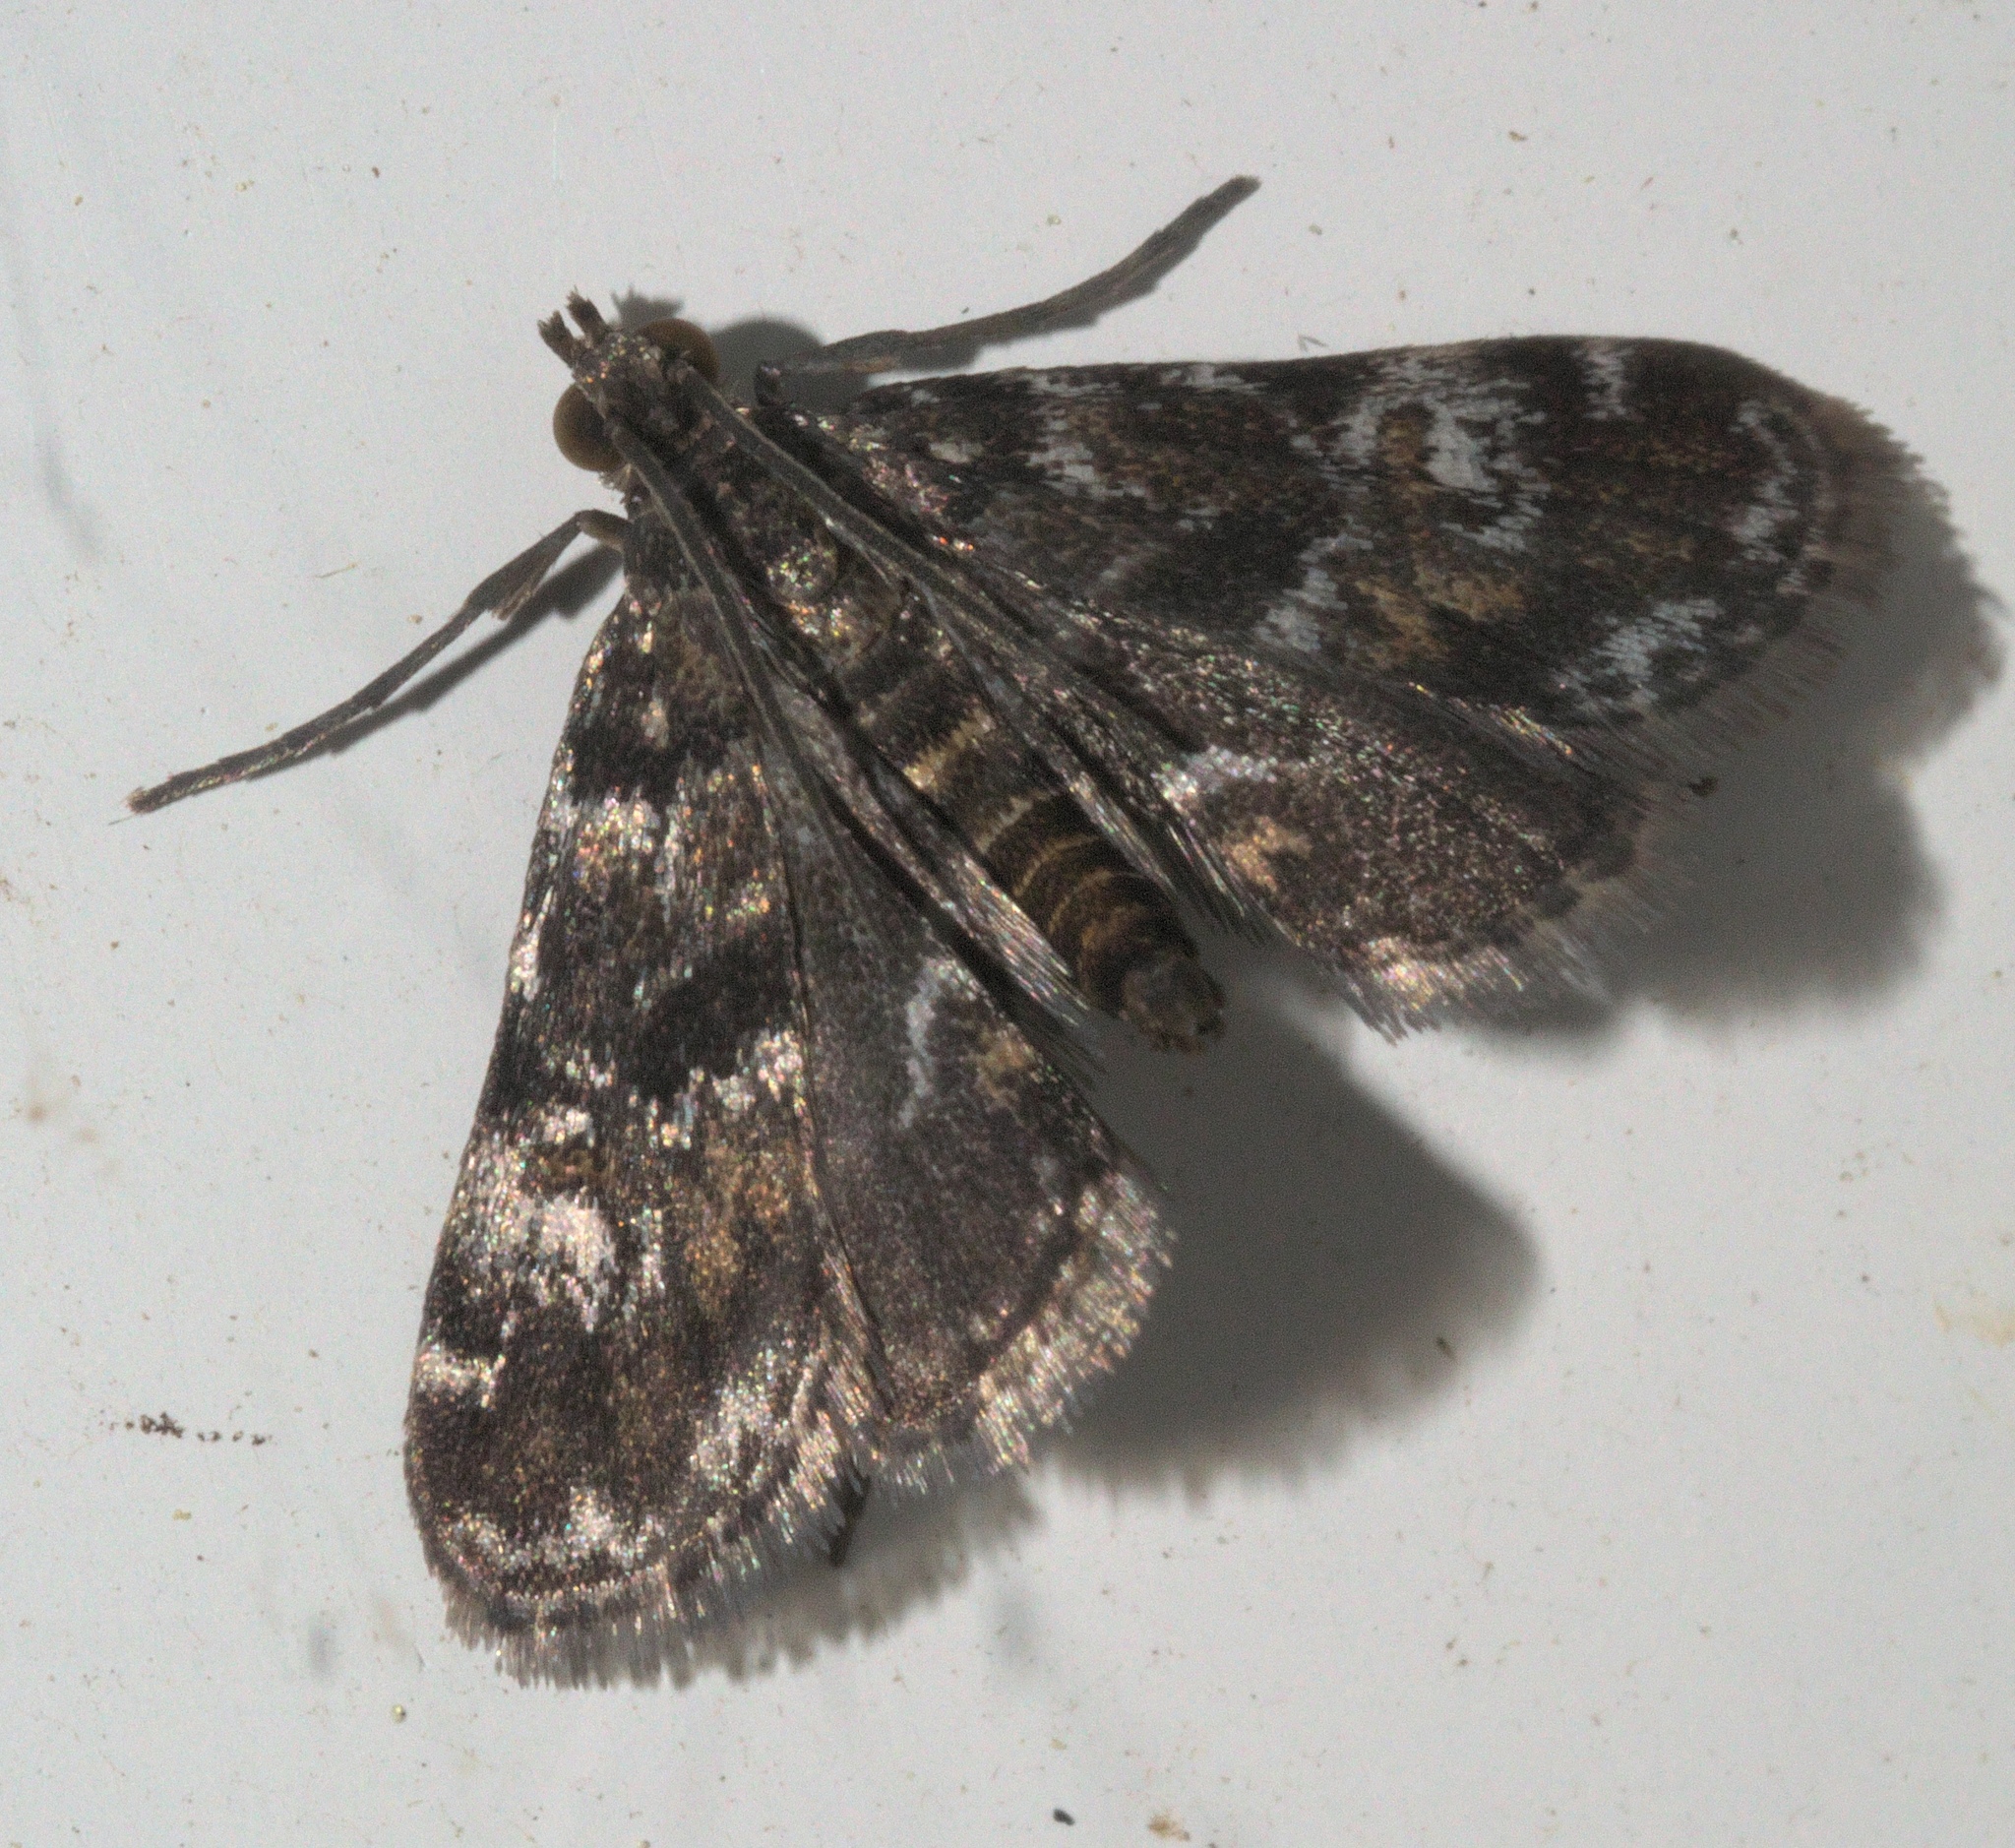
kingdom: Animalia
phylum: Arthropoda
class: Insecta
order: Lepidoptera
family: Crambidae
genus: Elophila
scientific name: Elophila obliteralis
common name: Waterlily leafcutter moth
